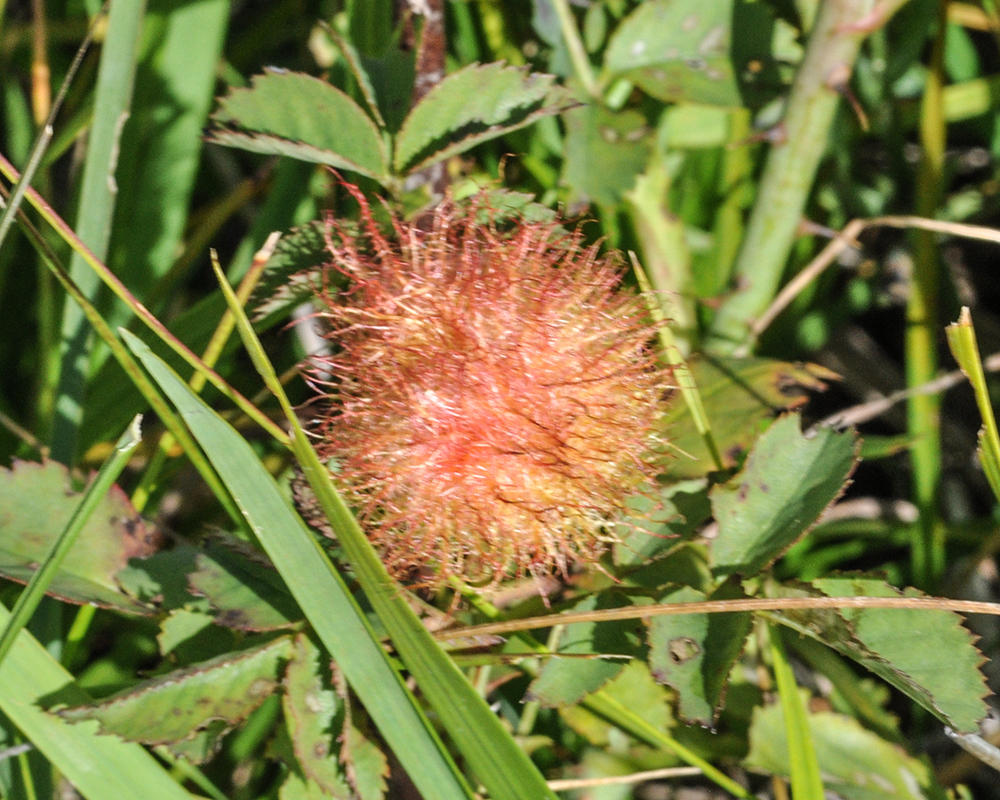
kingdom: Animalia
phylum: Arthropoda
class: Insecta
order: Hymenoptera
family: Cynipidae
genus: Diplolepis
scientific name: Diplolepis rosae
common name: Bedeguar gall
